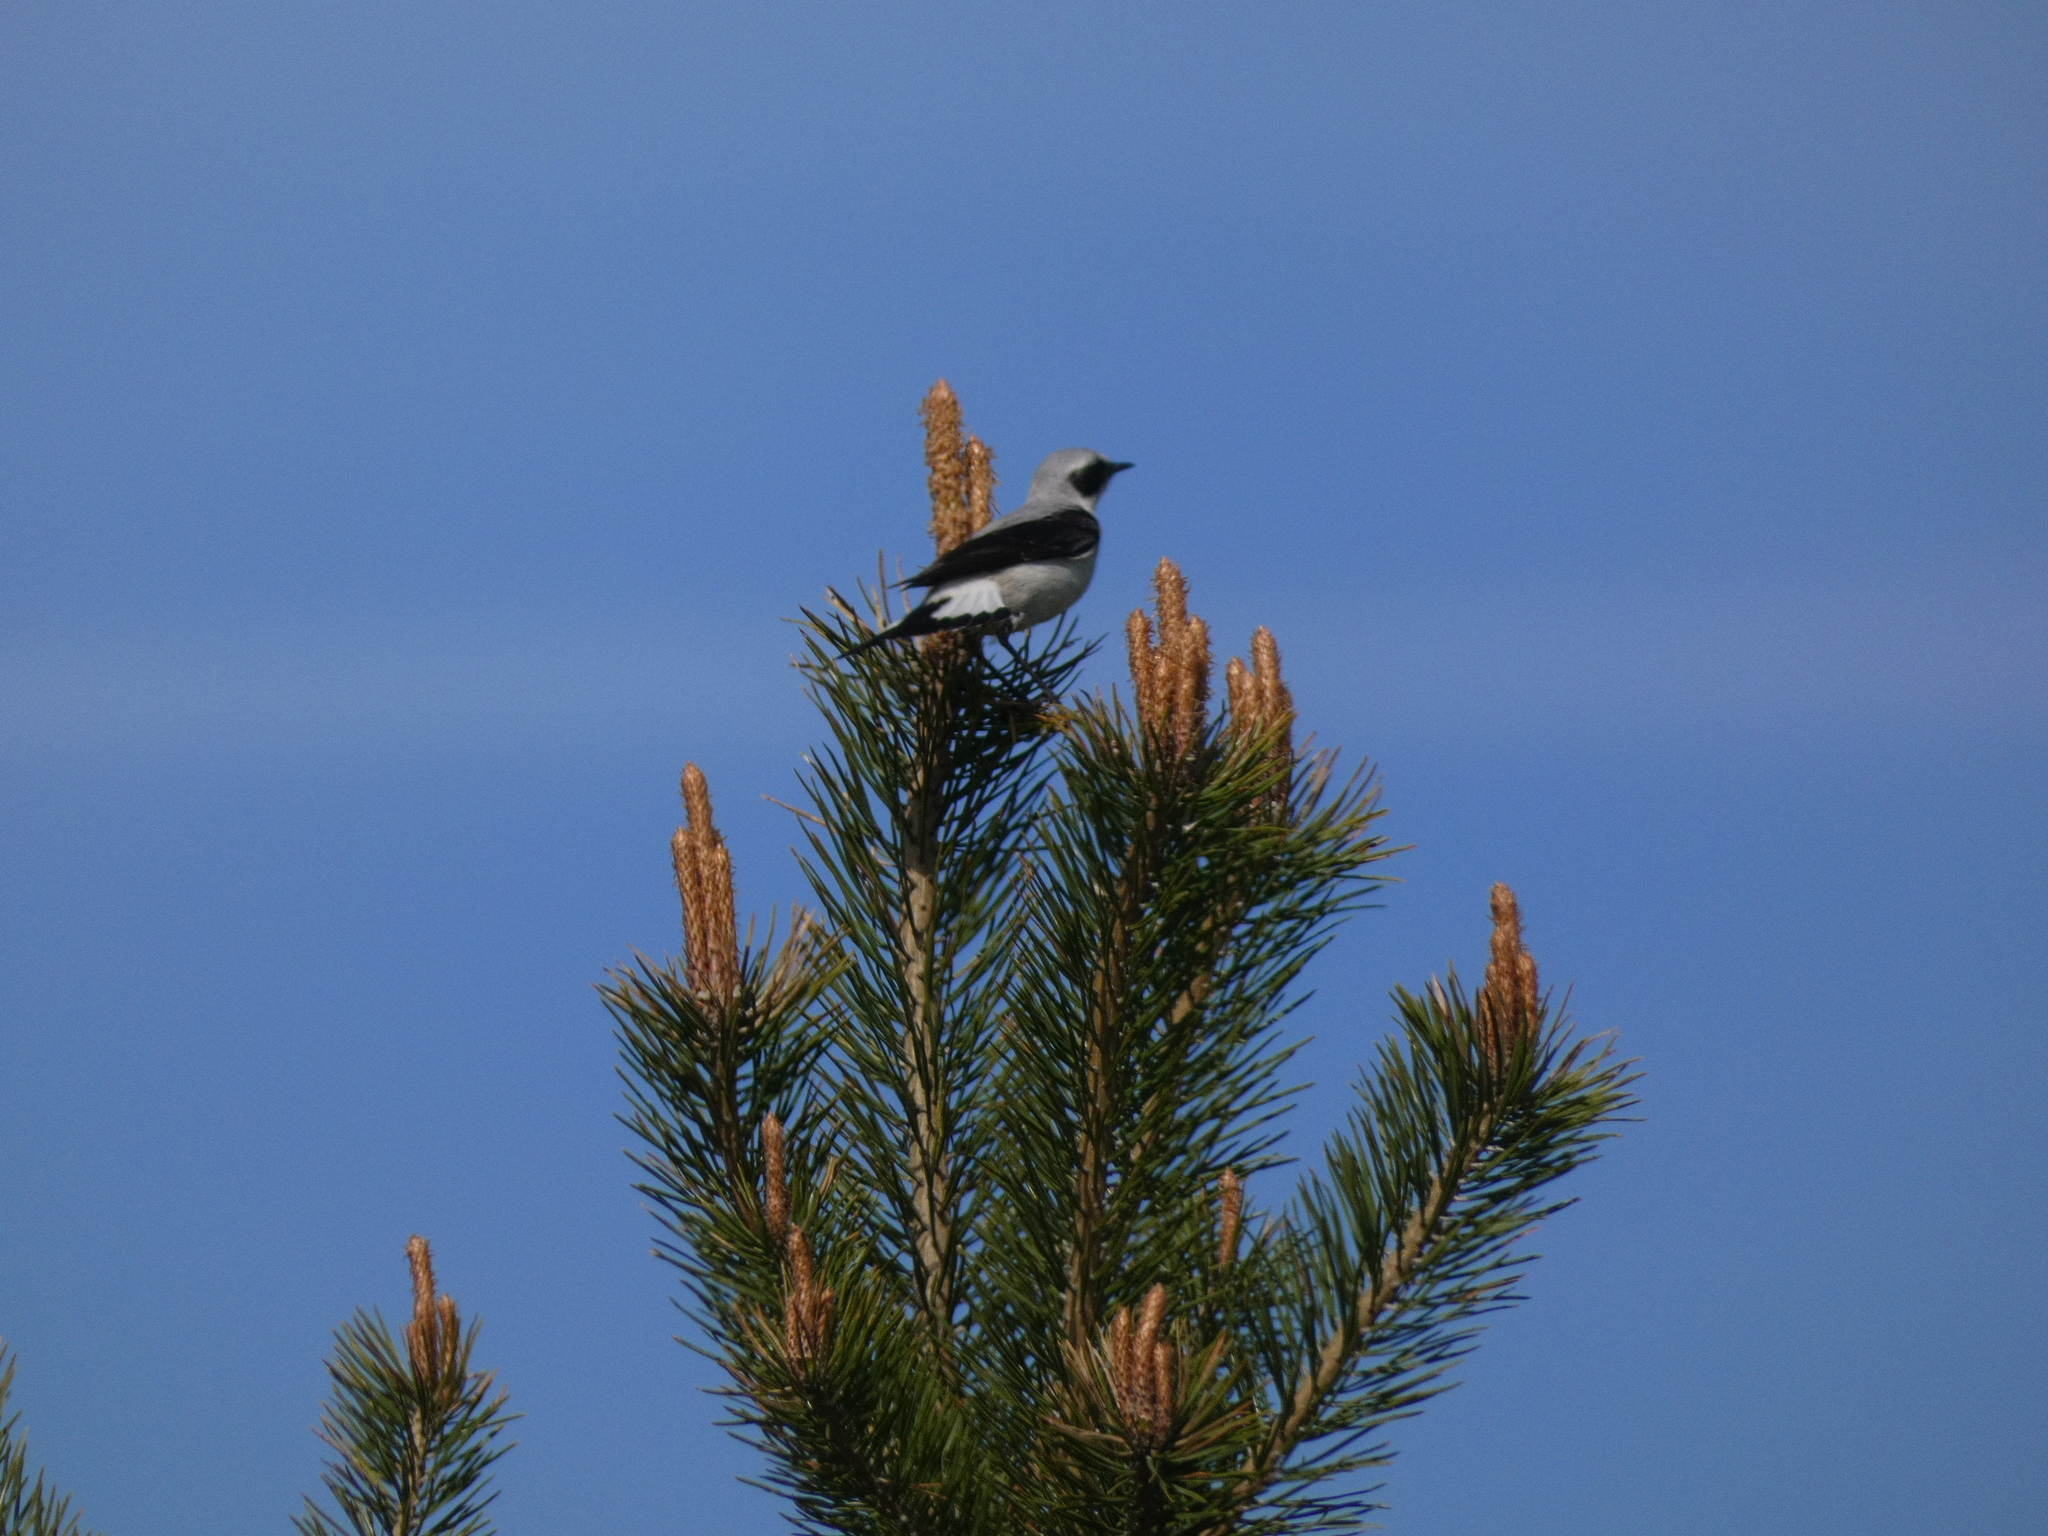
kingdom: Animalia
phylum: Chordata
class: Aves
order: Passeriformes
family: Muscicapidae
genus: Oenanthe
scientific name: Oenanthe oenanthe
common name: Northern wheatear
